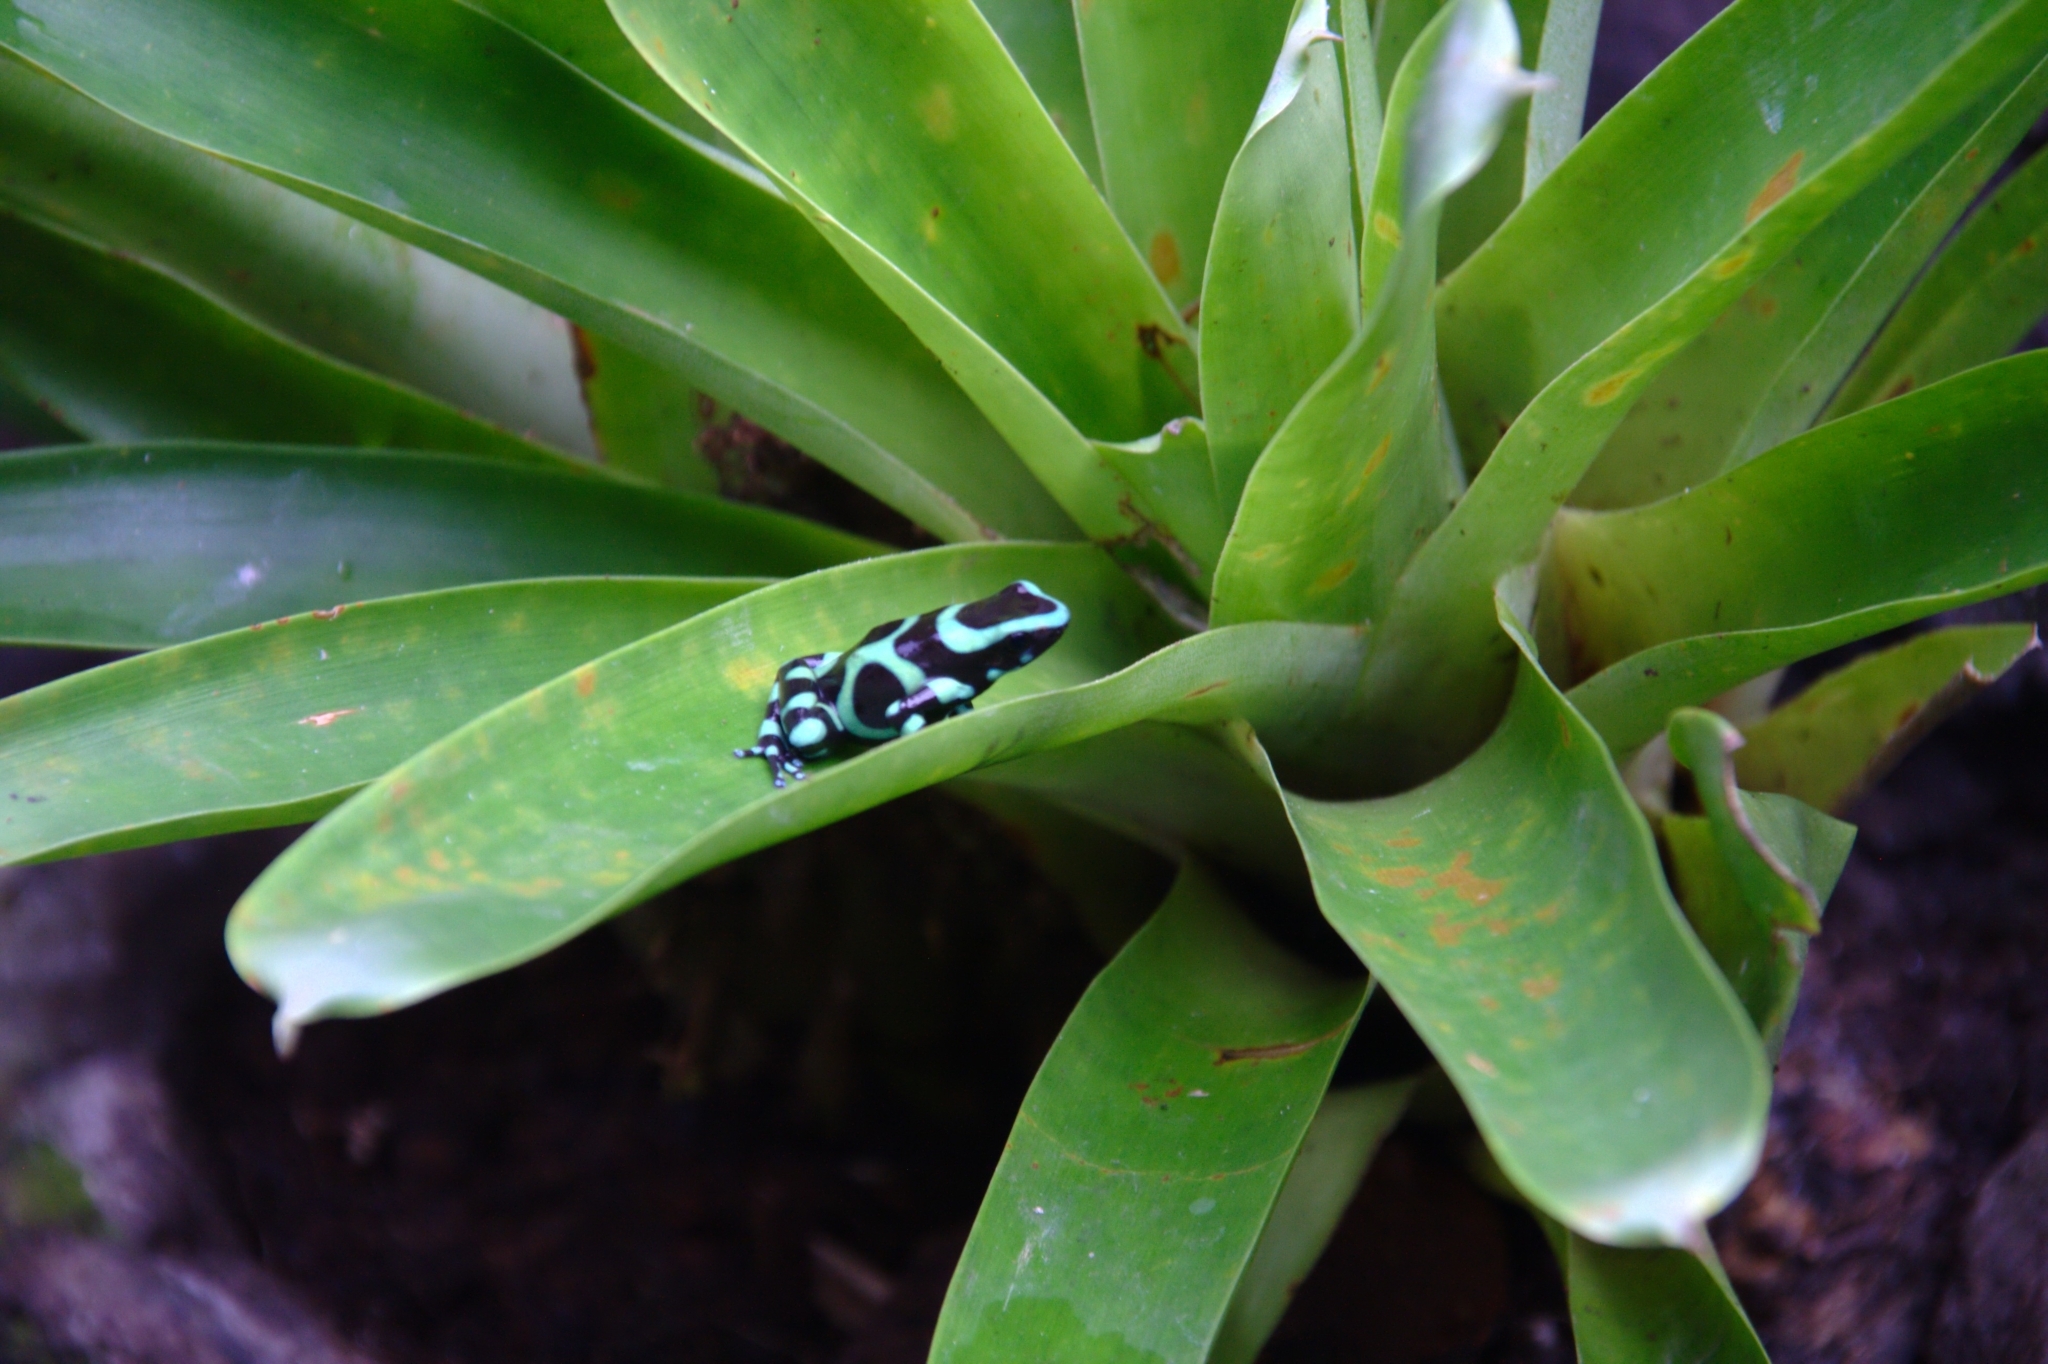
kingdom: Animalia
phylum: Chordata
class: Amphibia
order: Anura
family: Dendrobatidae
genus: Dendrobates
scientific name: Dendrobates auratus
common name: Green and black poison dart frog
